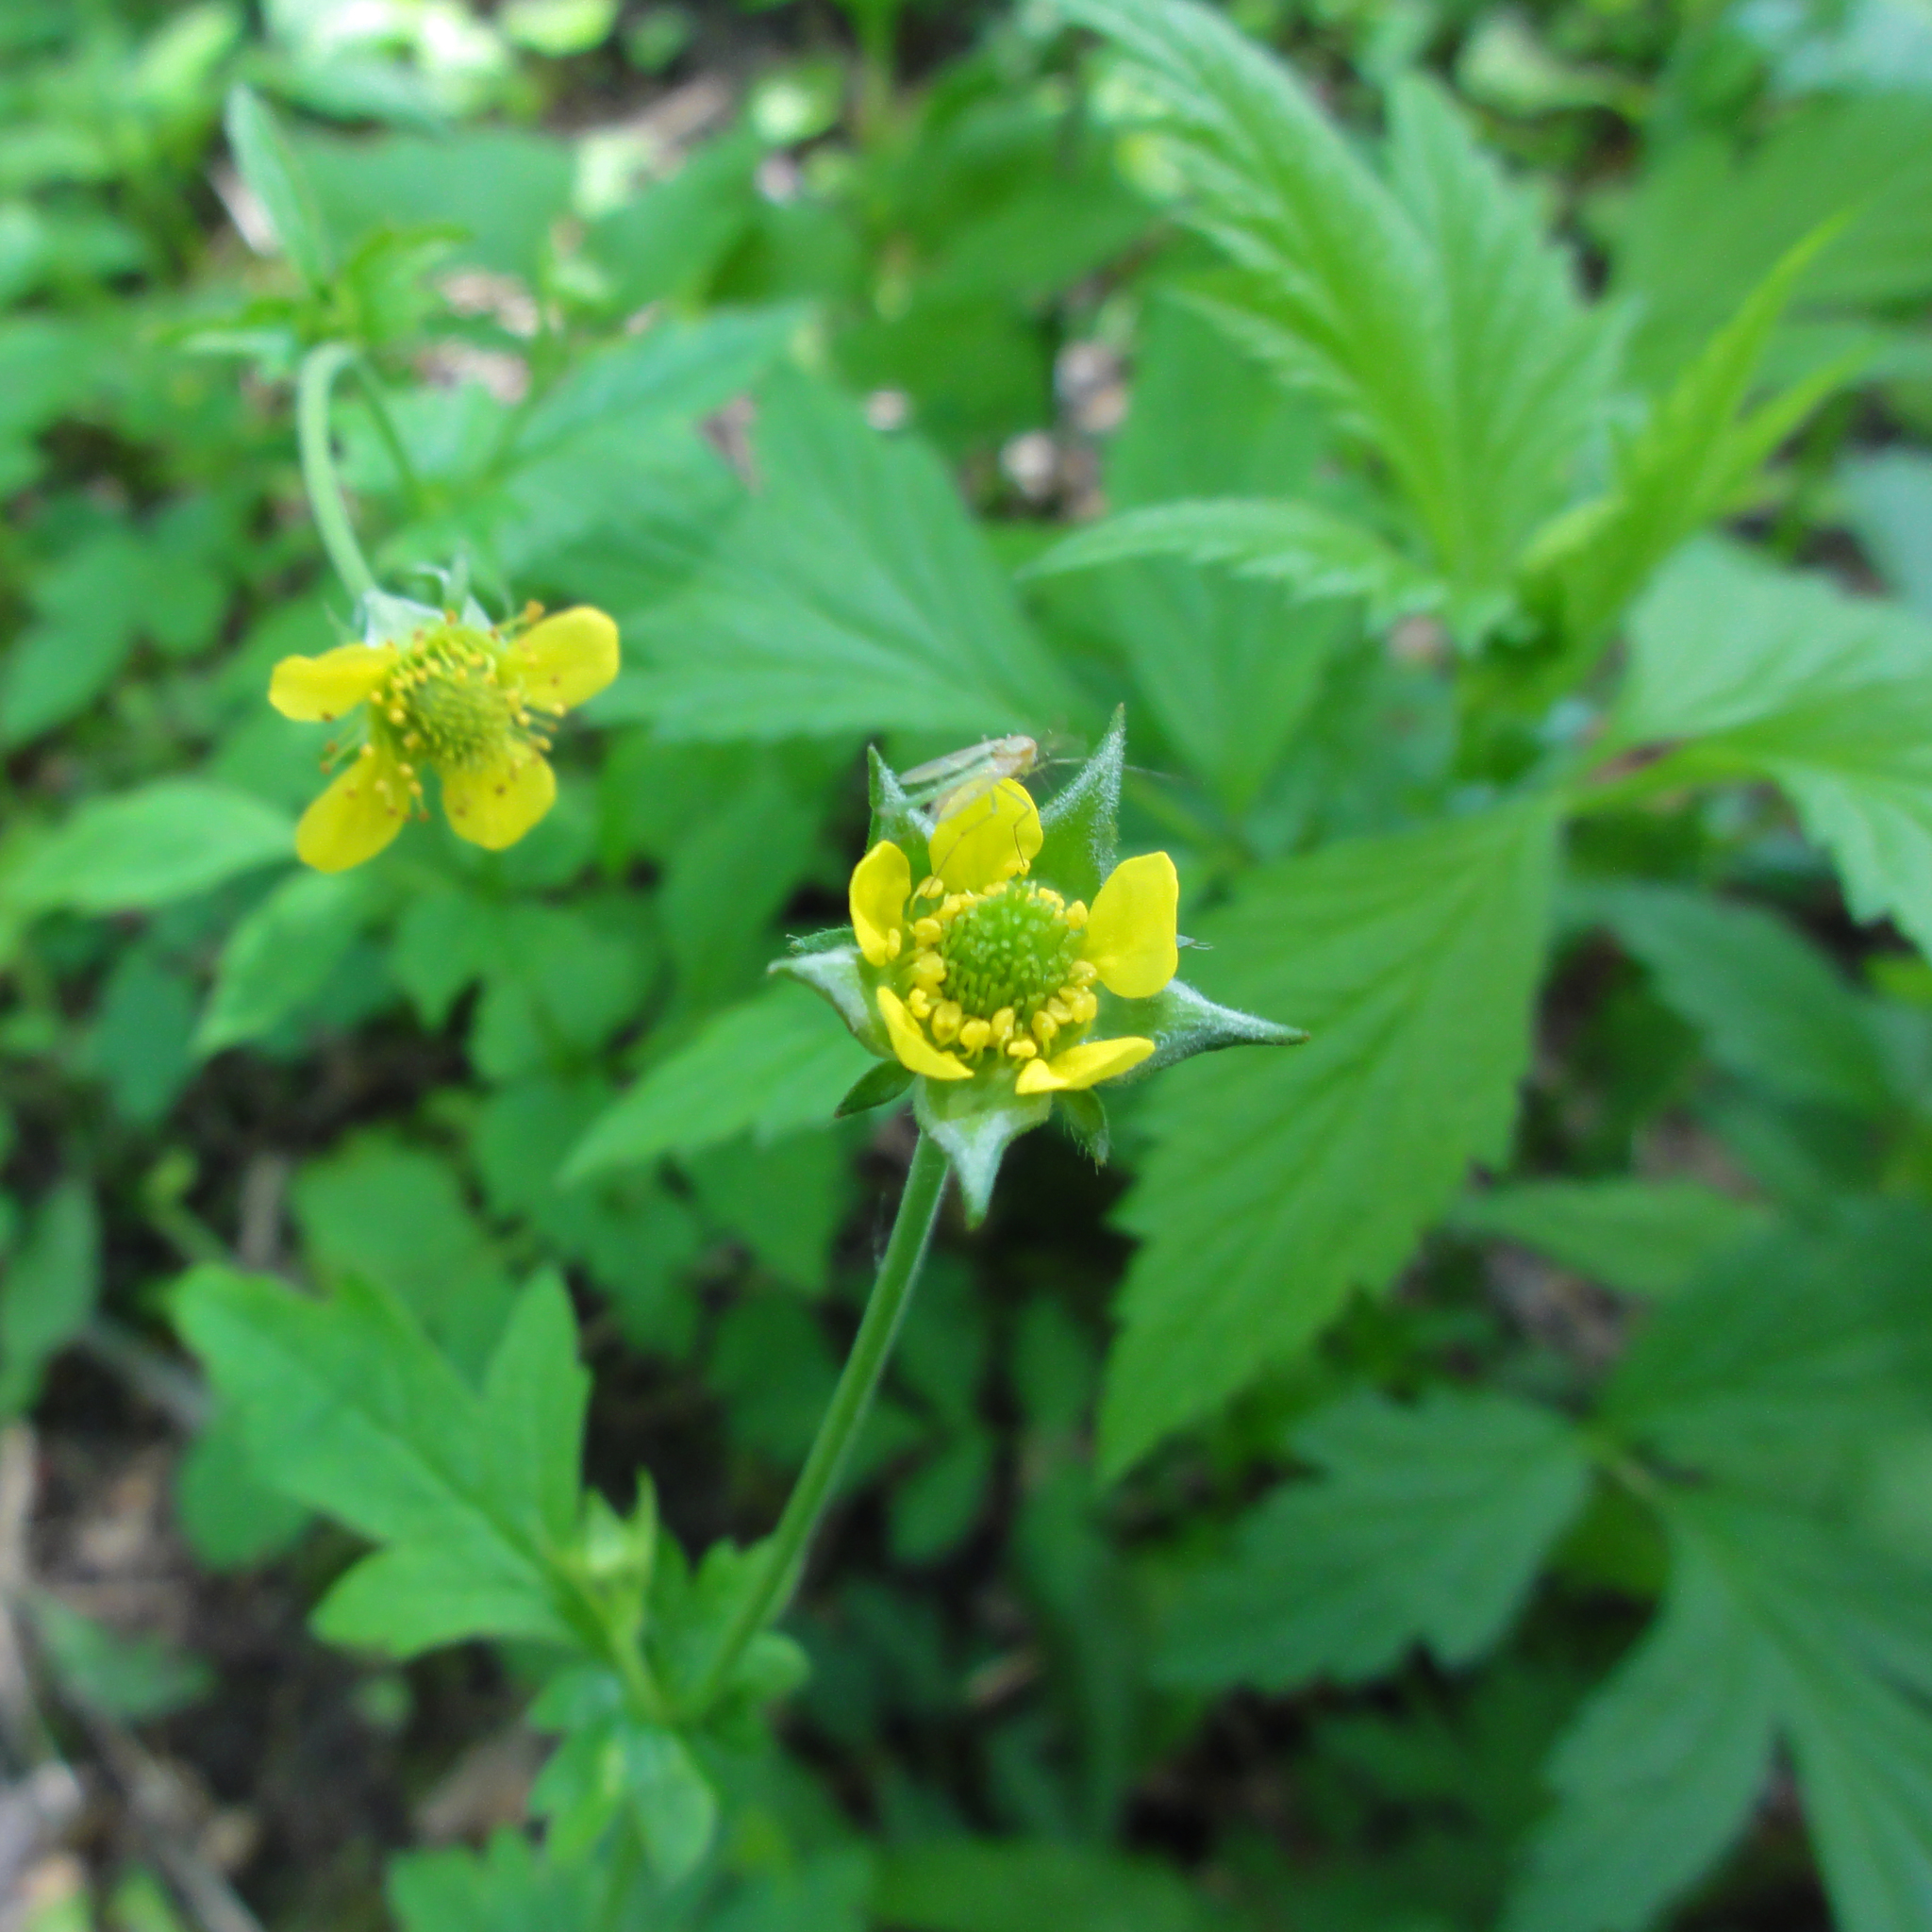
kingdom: Plantae
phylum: Tracheophyta
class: Magnoliopsida
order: Rosales
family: Rosaceae
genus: Geum
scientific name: Geum urbanum
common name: Wood avens
